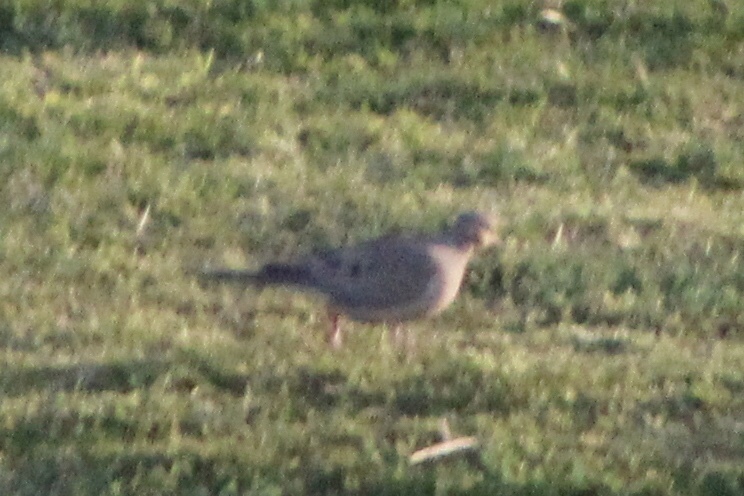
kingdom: Animalia
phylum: Chordata
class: Aves
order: Columbiformes
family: Columbidae
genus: Zenaida
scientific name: Zenaida macroura
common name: Mourning dove
